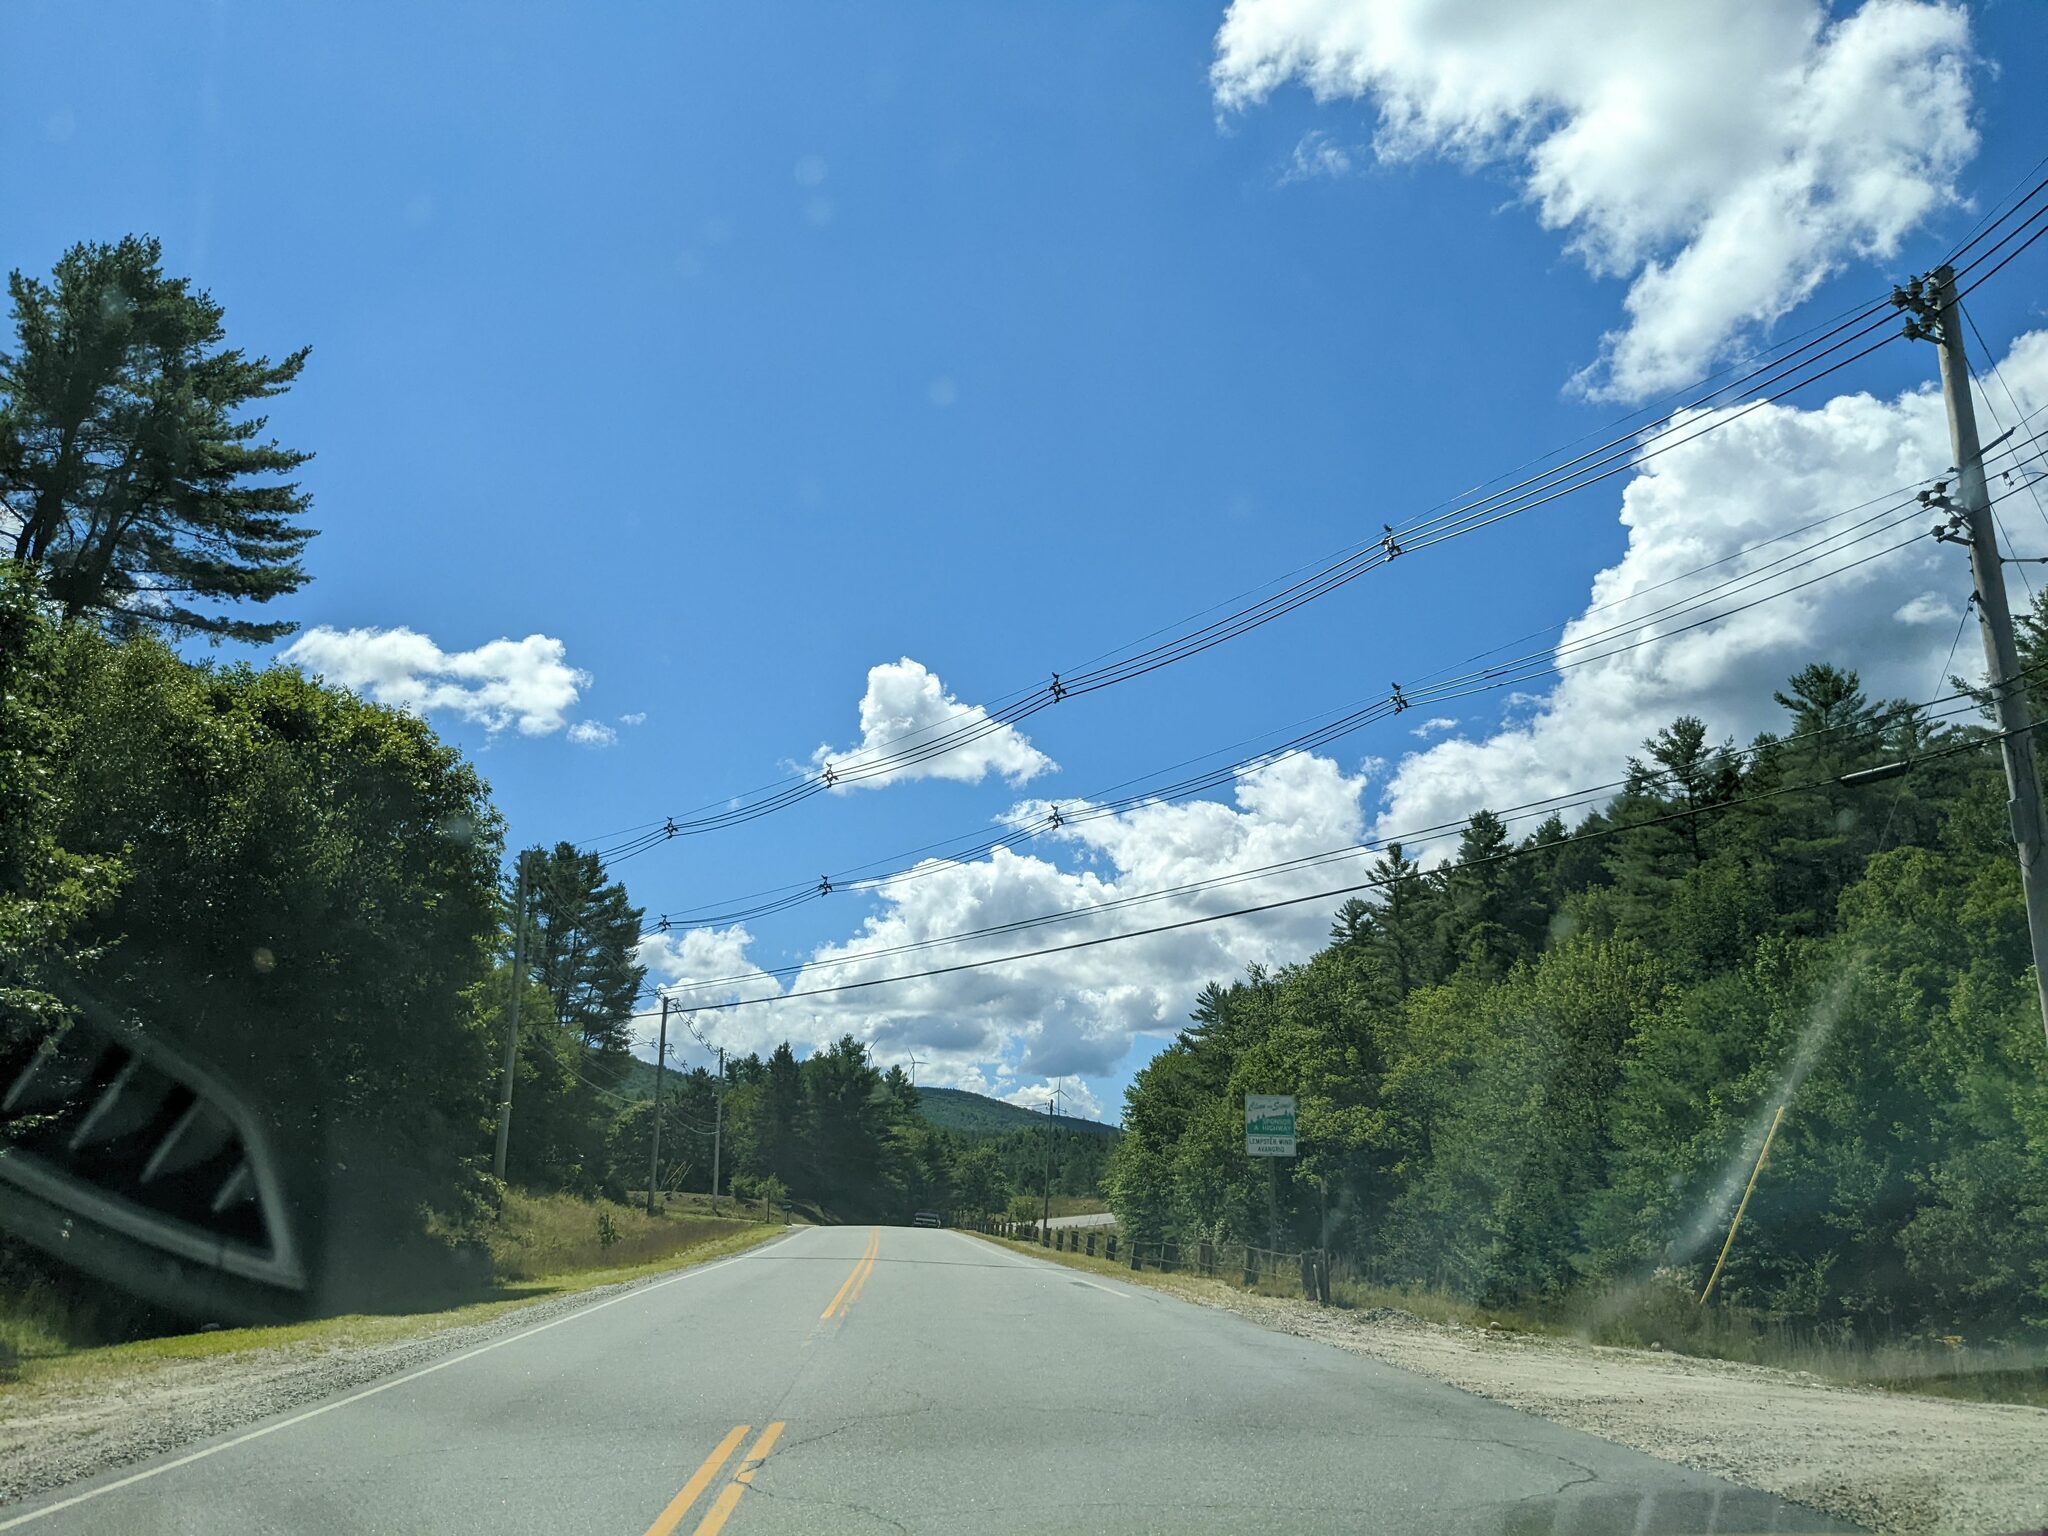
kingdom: Plantae
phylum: Tracheophyta
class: Pinopsida
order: Pinales
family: Pinaceae
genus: Pinus
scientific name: Pinus strobus
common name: Weymouth pine
